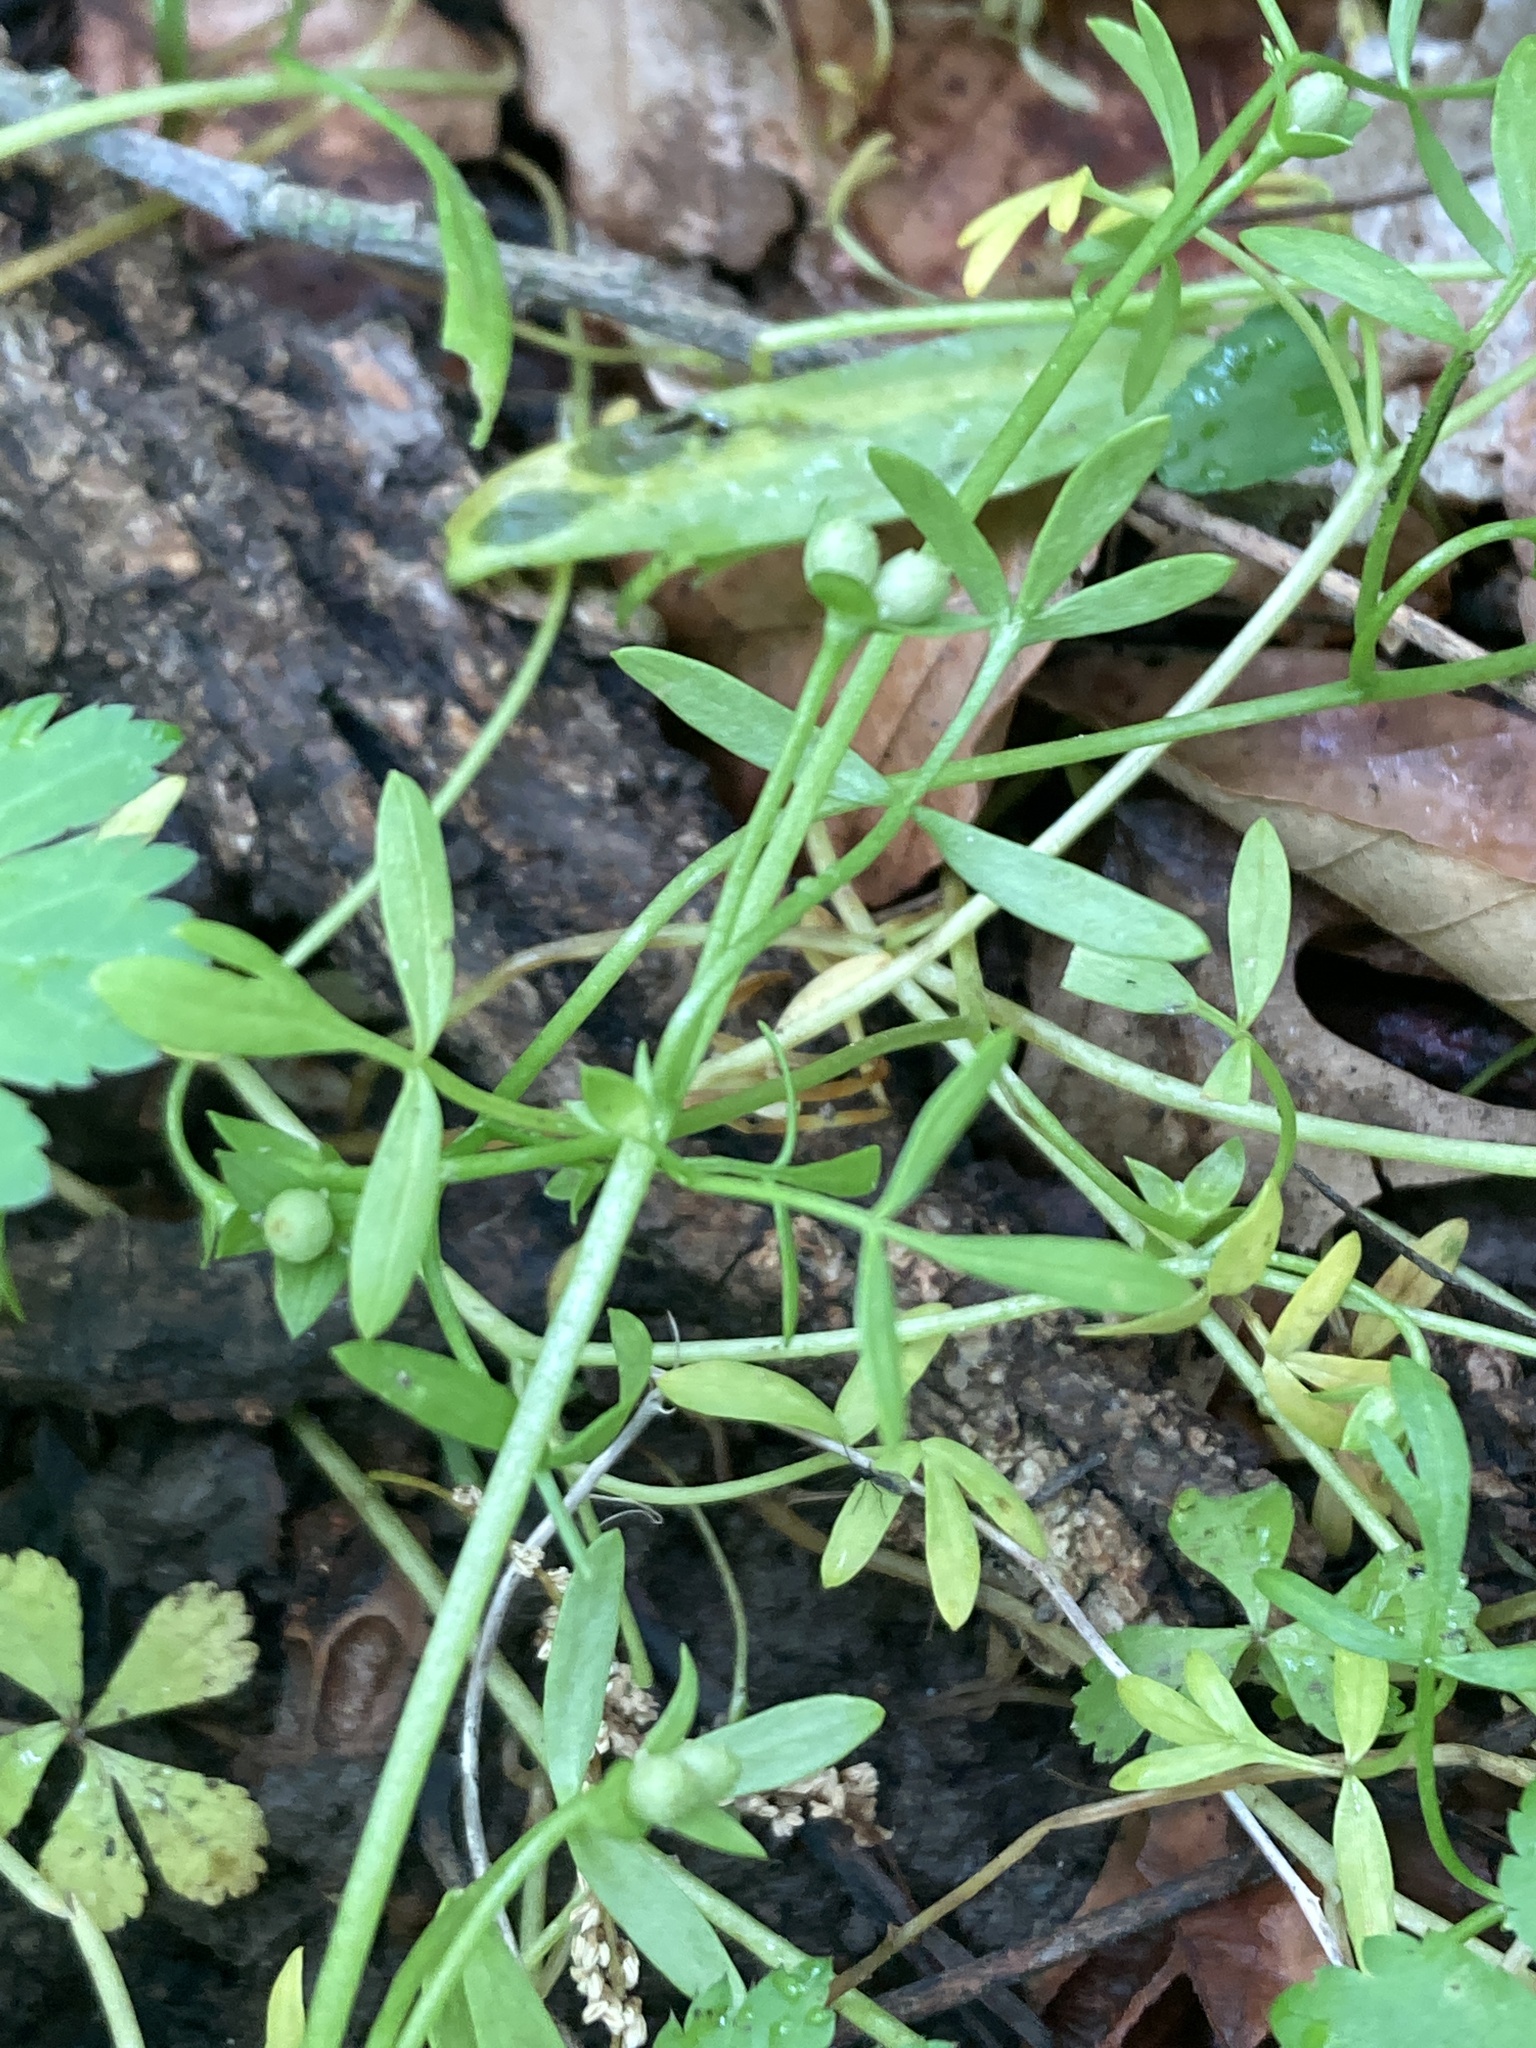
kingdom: Plantae
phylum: Tracheophyta
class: Magnoliopsida
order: Brassicales
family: Limnanthaceae
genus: Floerkea
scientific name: Floerkea proserpinacoides
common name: False mermaid
